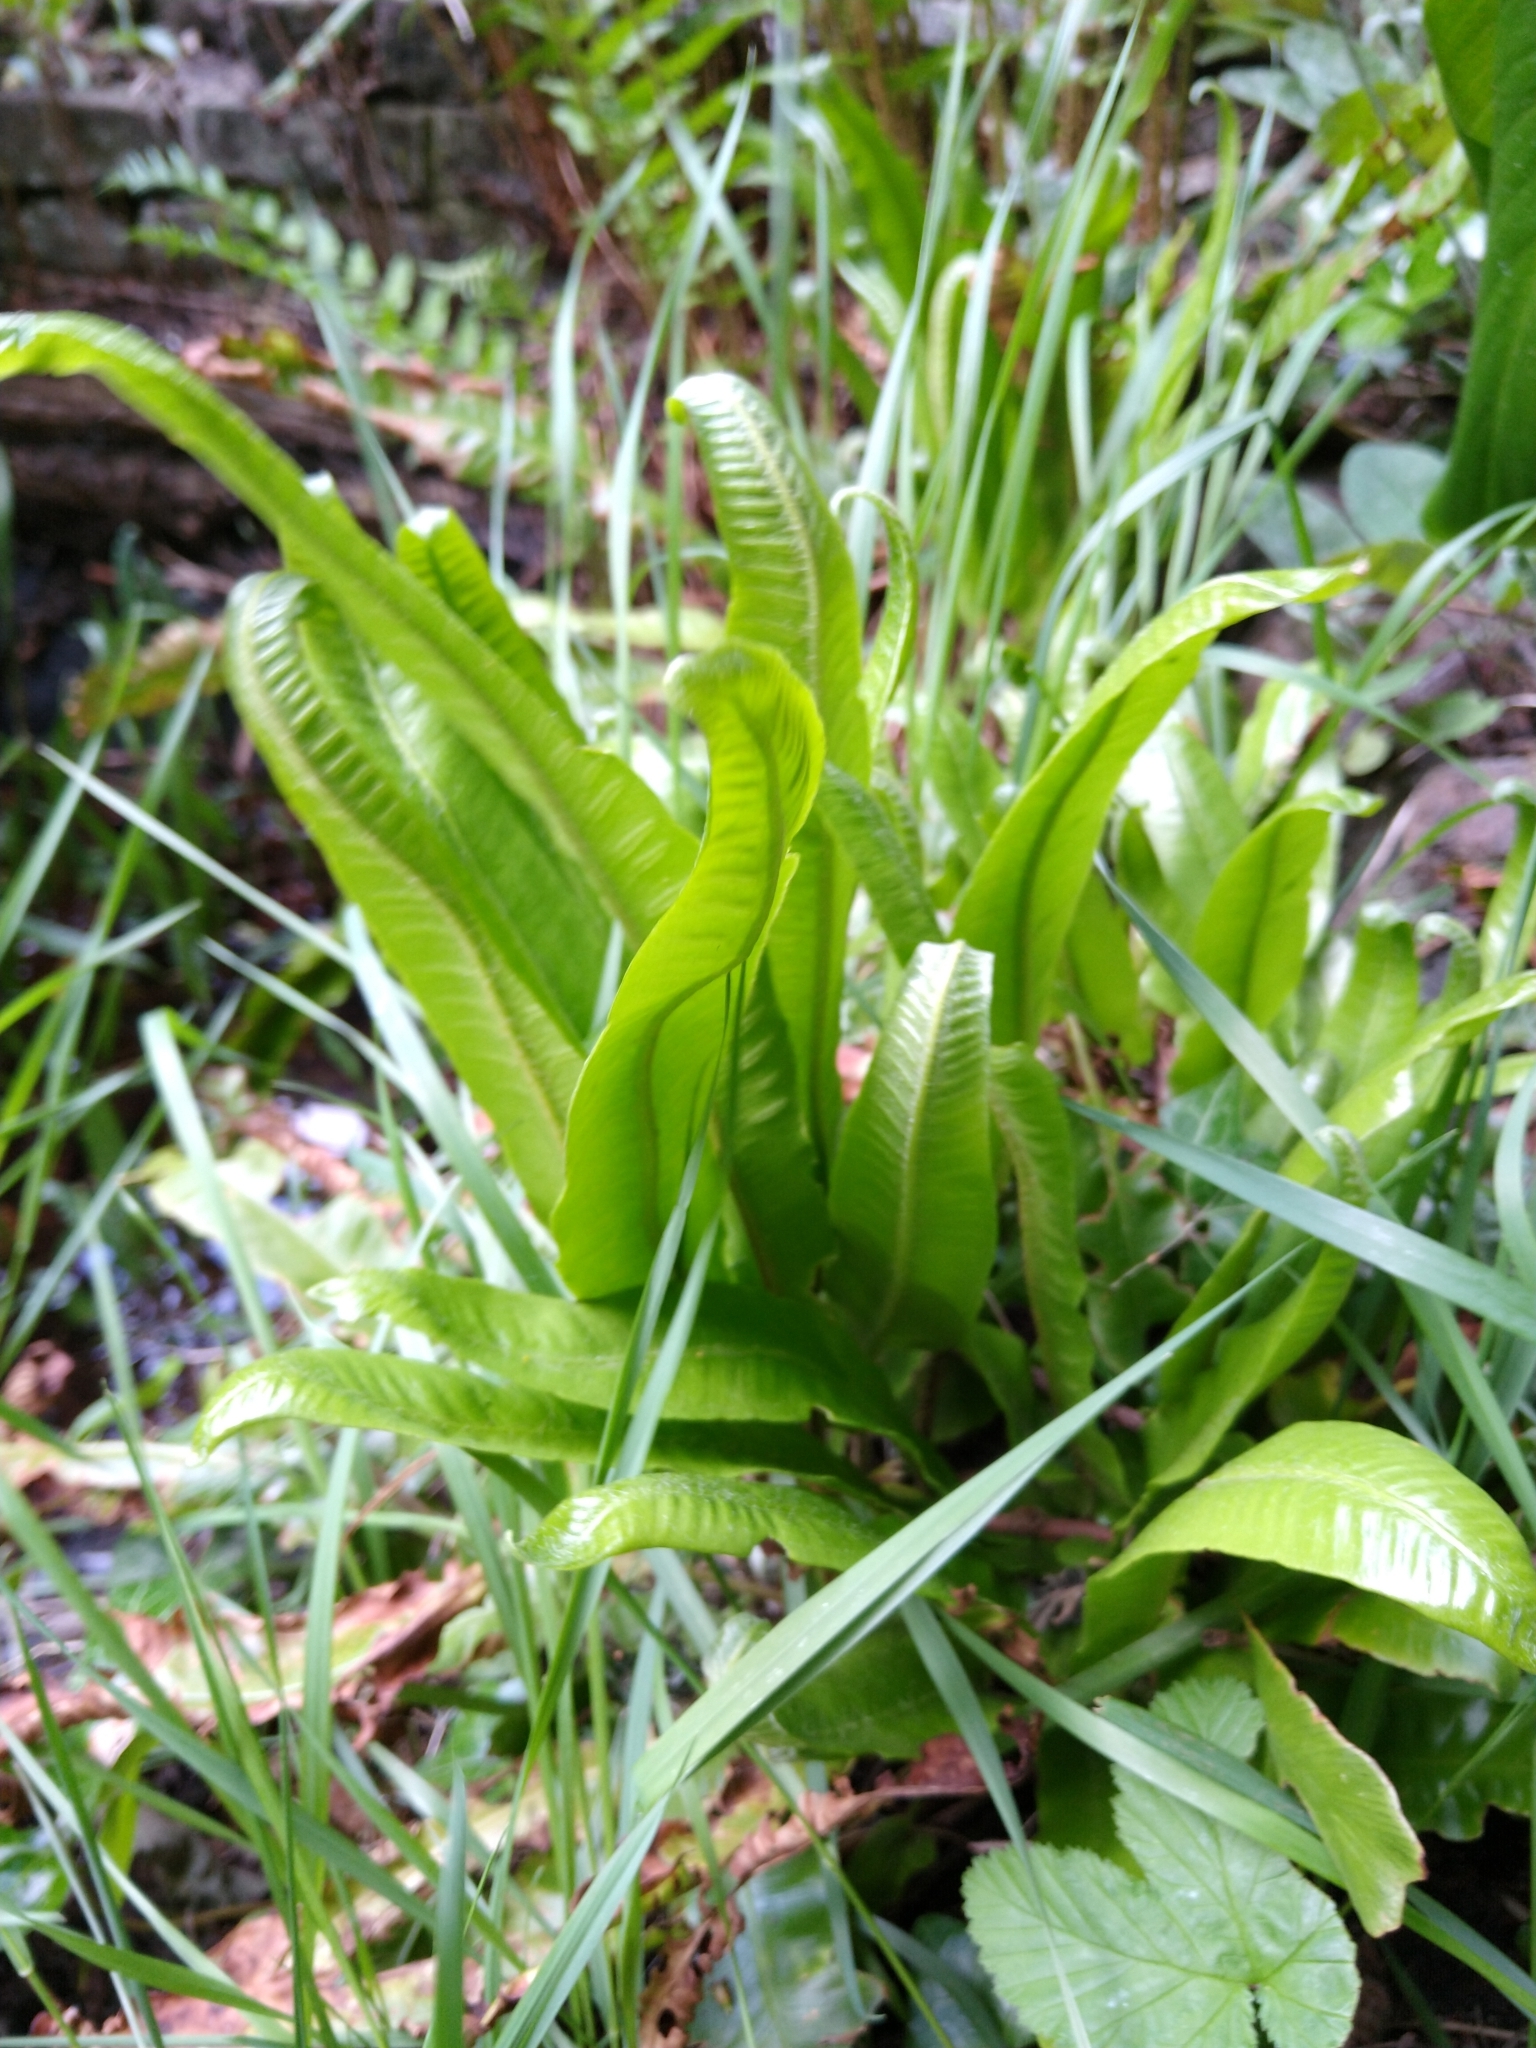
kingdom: Plantae
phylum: Tracheophyta
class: Polypodiopsida
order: Polypodiales
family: Aspleniaceae
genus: Asplenium
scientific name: Asplenium scolopendrium
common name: Hart's-tongue fern
